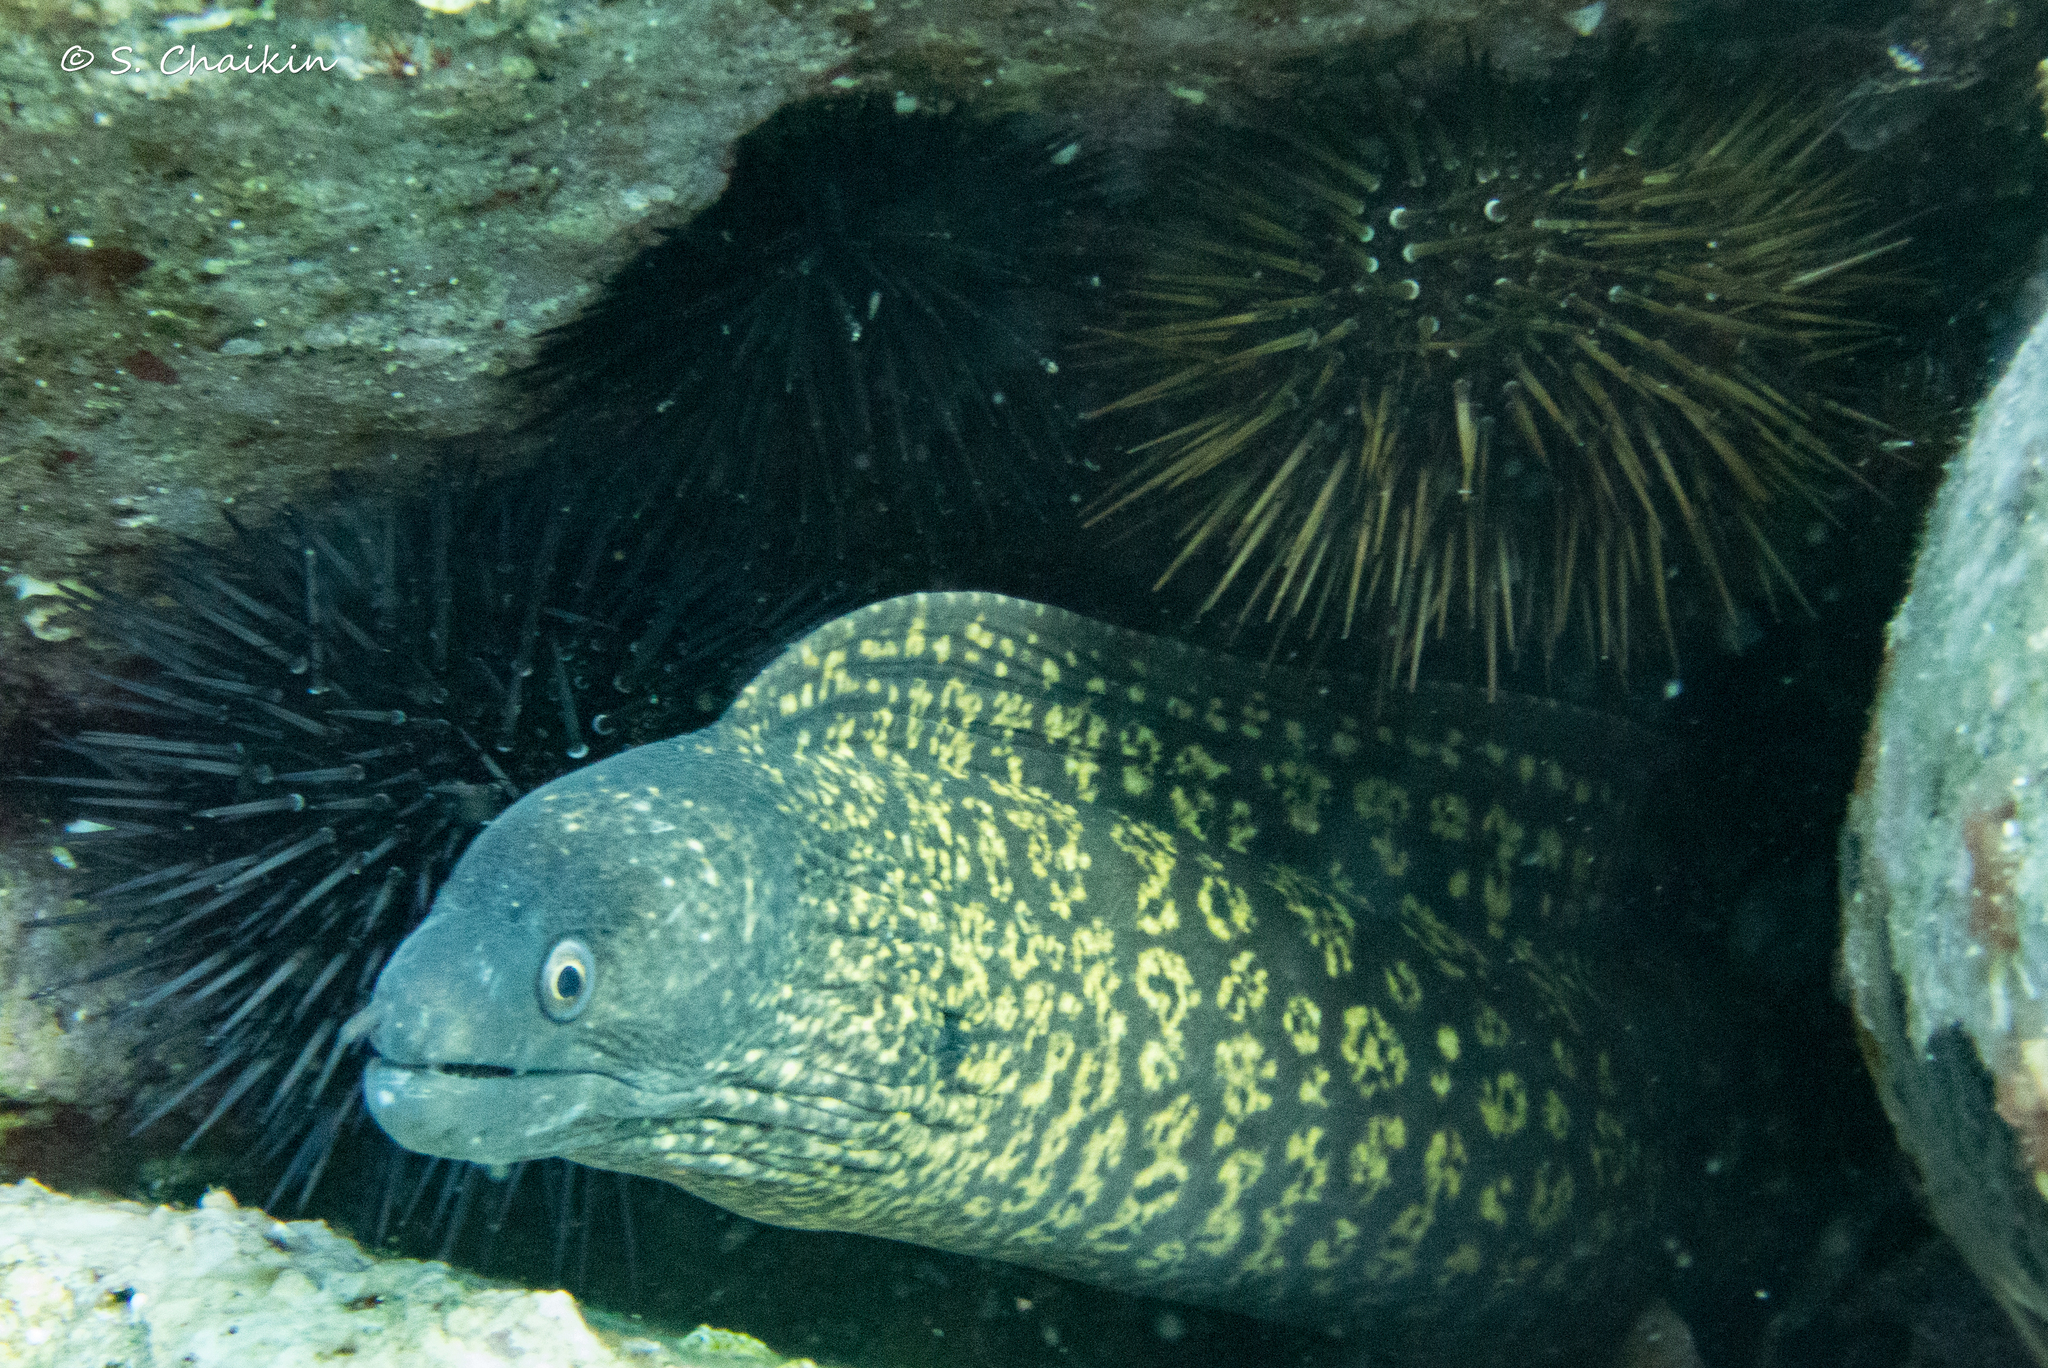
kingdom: Animalia
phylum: Chordata
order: Anguilliformes
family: Muraenidae
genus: Muraena
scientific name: Muraena helena
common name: Mediterranean moray
